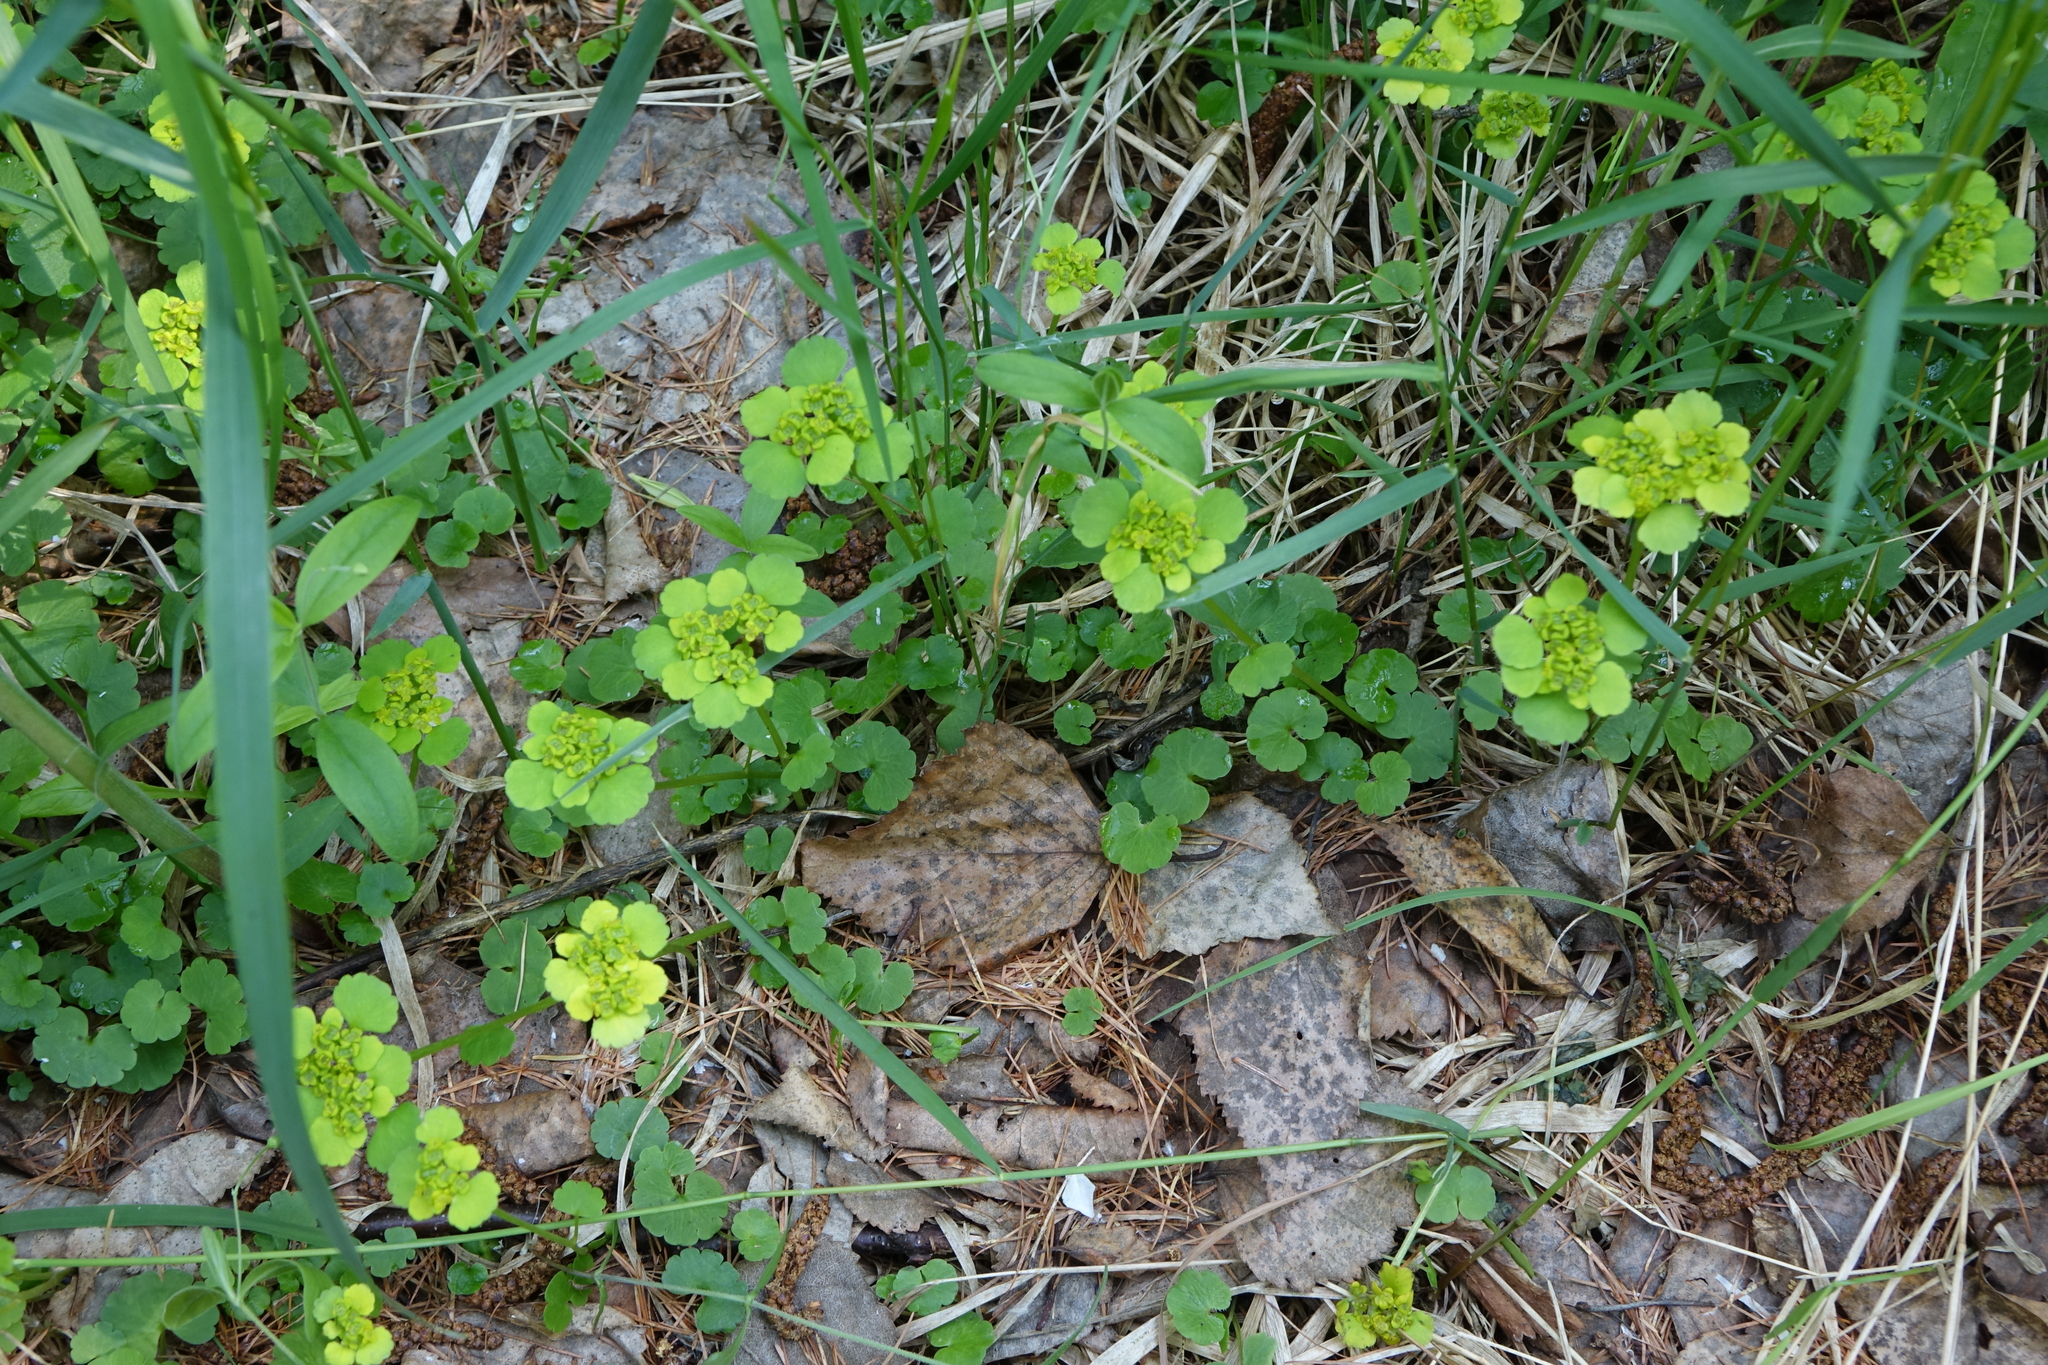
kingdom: Plantae
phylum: Tracheophyta
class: Magnoliopsida
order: Saxifragales
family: Saxifragaceae
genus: Chrysosplenium
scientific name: Chrysosplenium sibiricum
